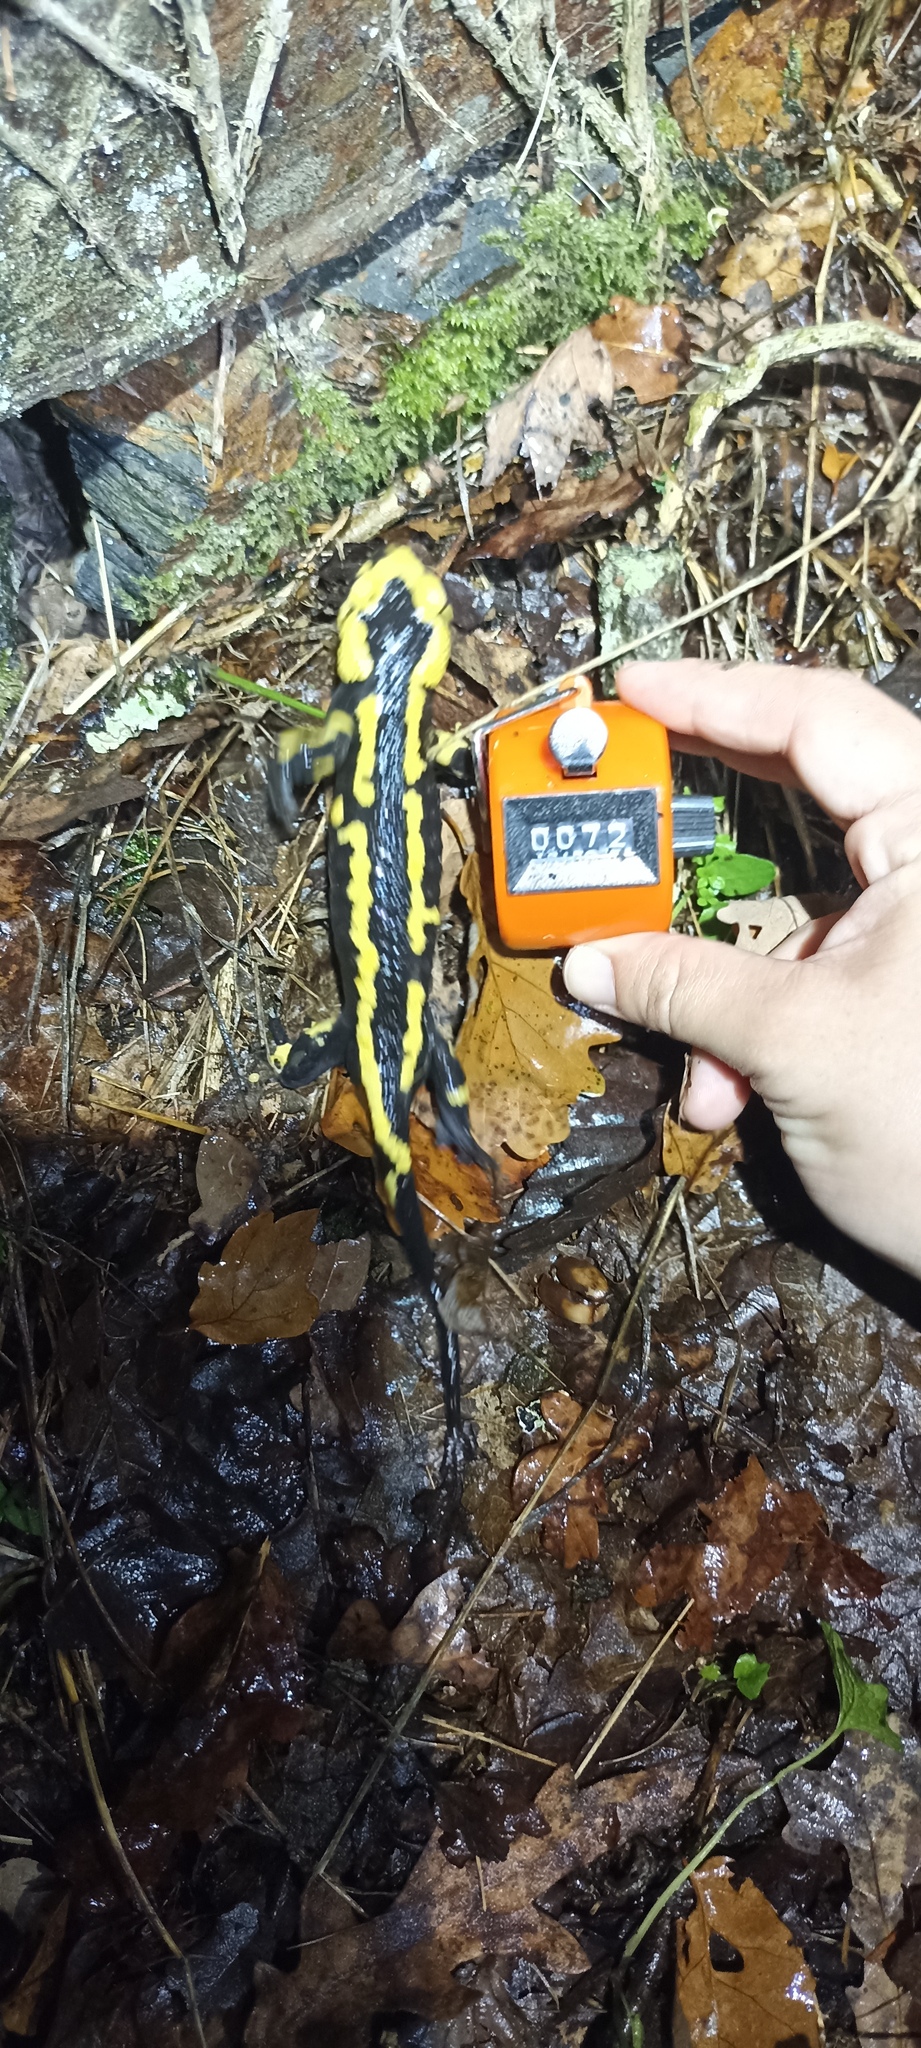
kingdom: Animalia
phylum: Chordata
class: Amphibia
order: Caudata
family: Salamandridae
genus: Salamandra
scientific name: Salamandra salamandra
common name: Fire salamander
